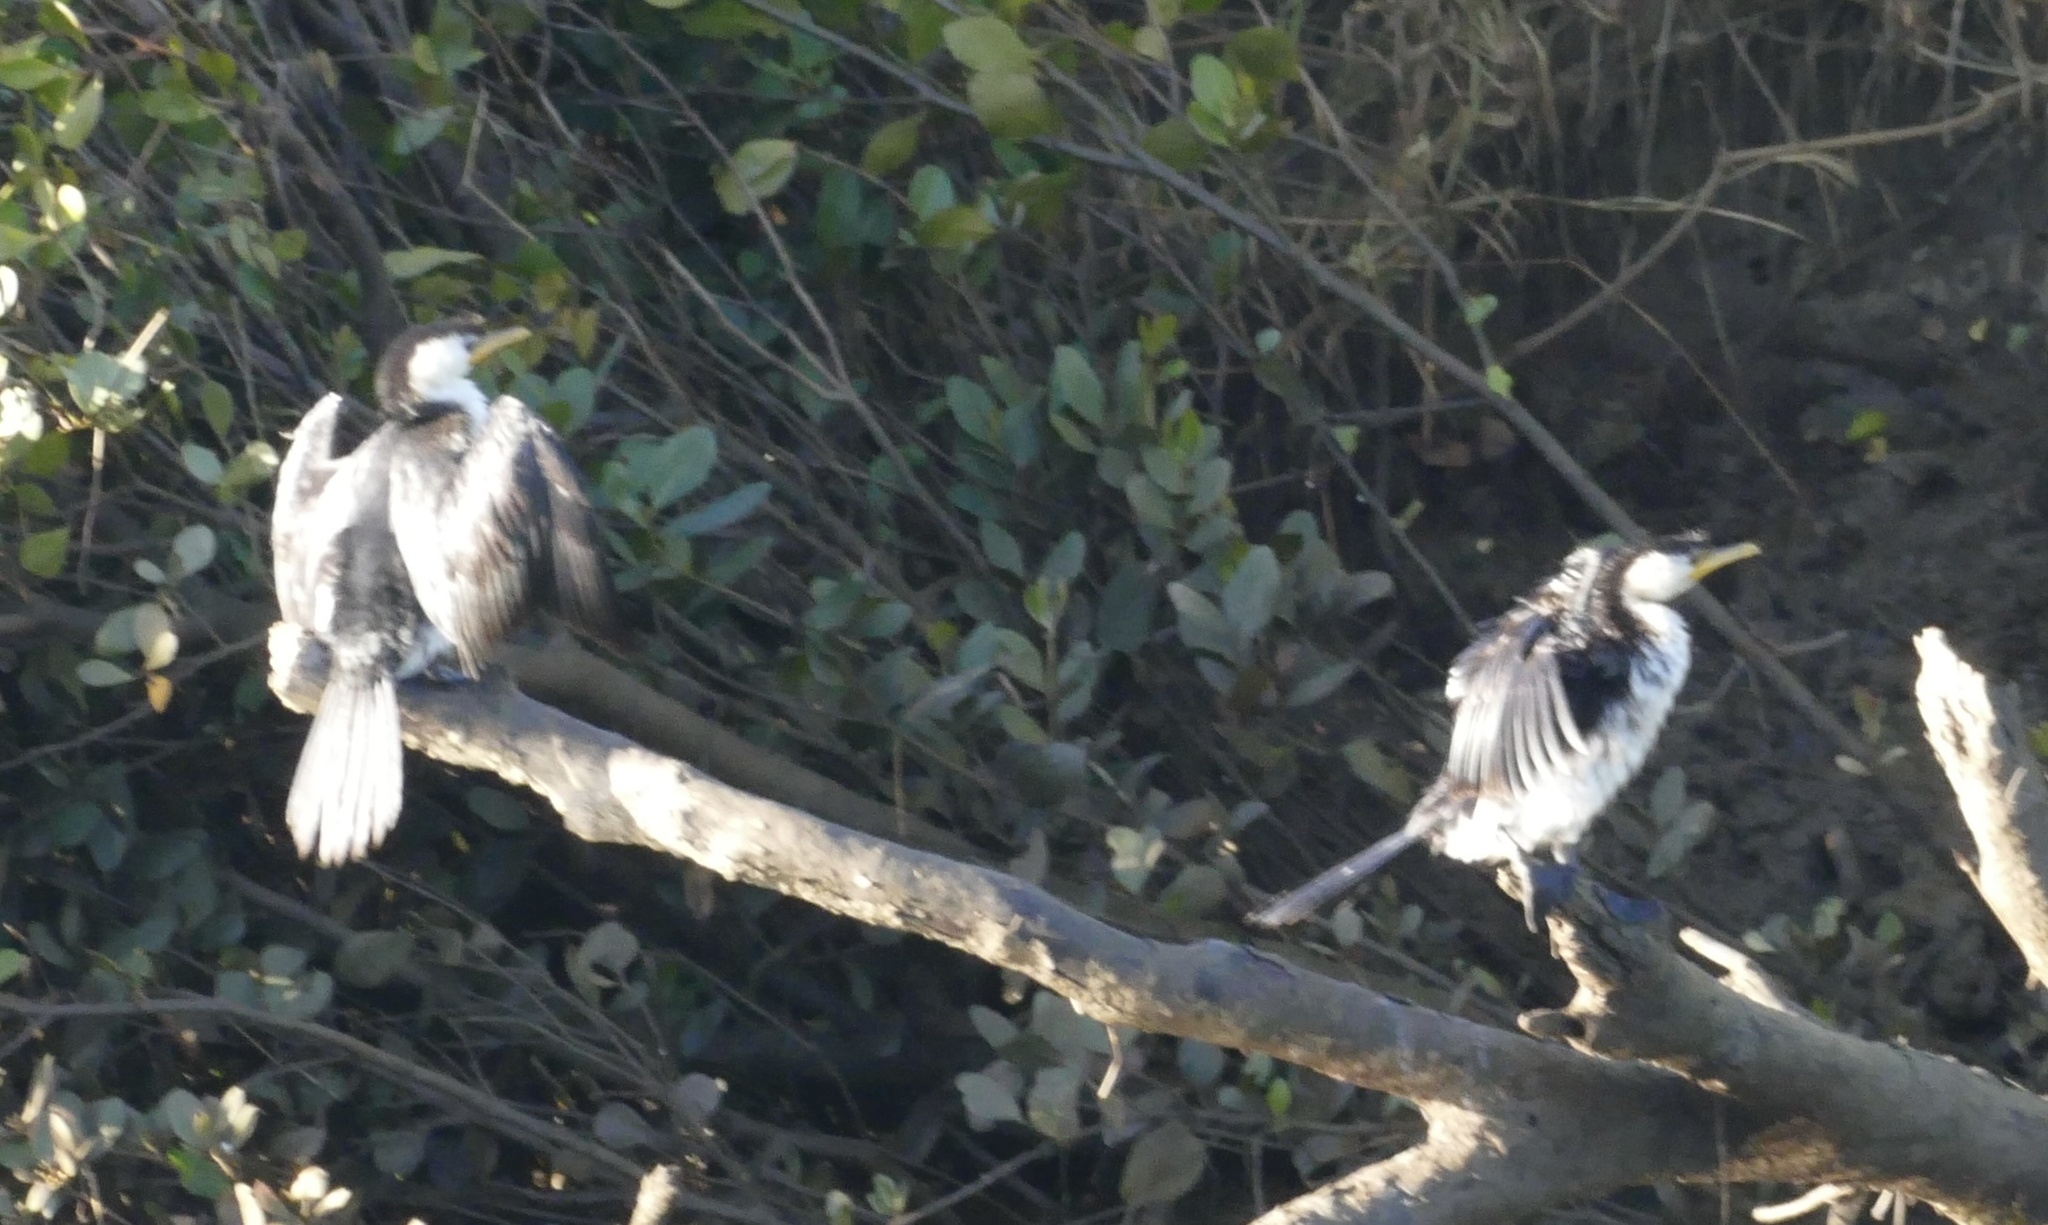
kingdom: Animalia
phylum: Chordata
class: Aves
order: Suliformes
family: Phalacrocoracidae
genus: Microcarbo
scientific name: Microcarbo melanoleucos
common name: Little pied cormorant
